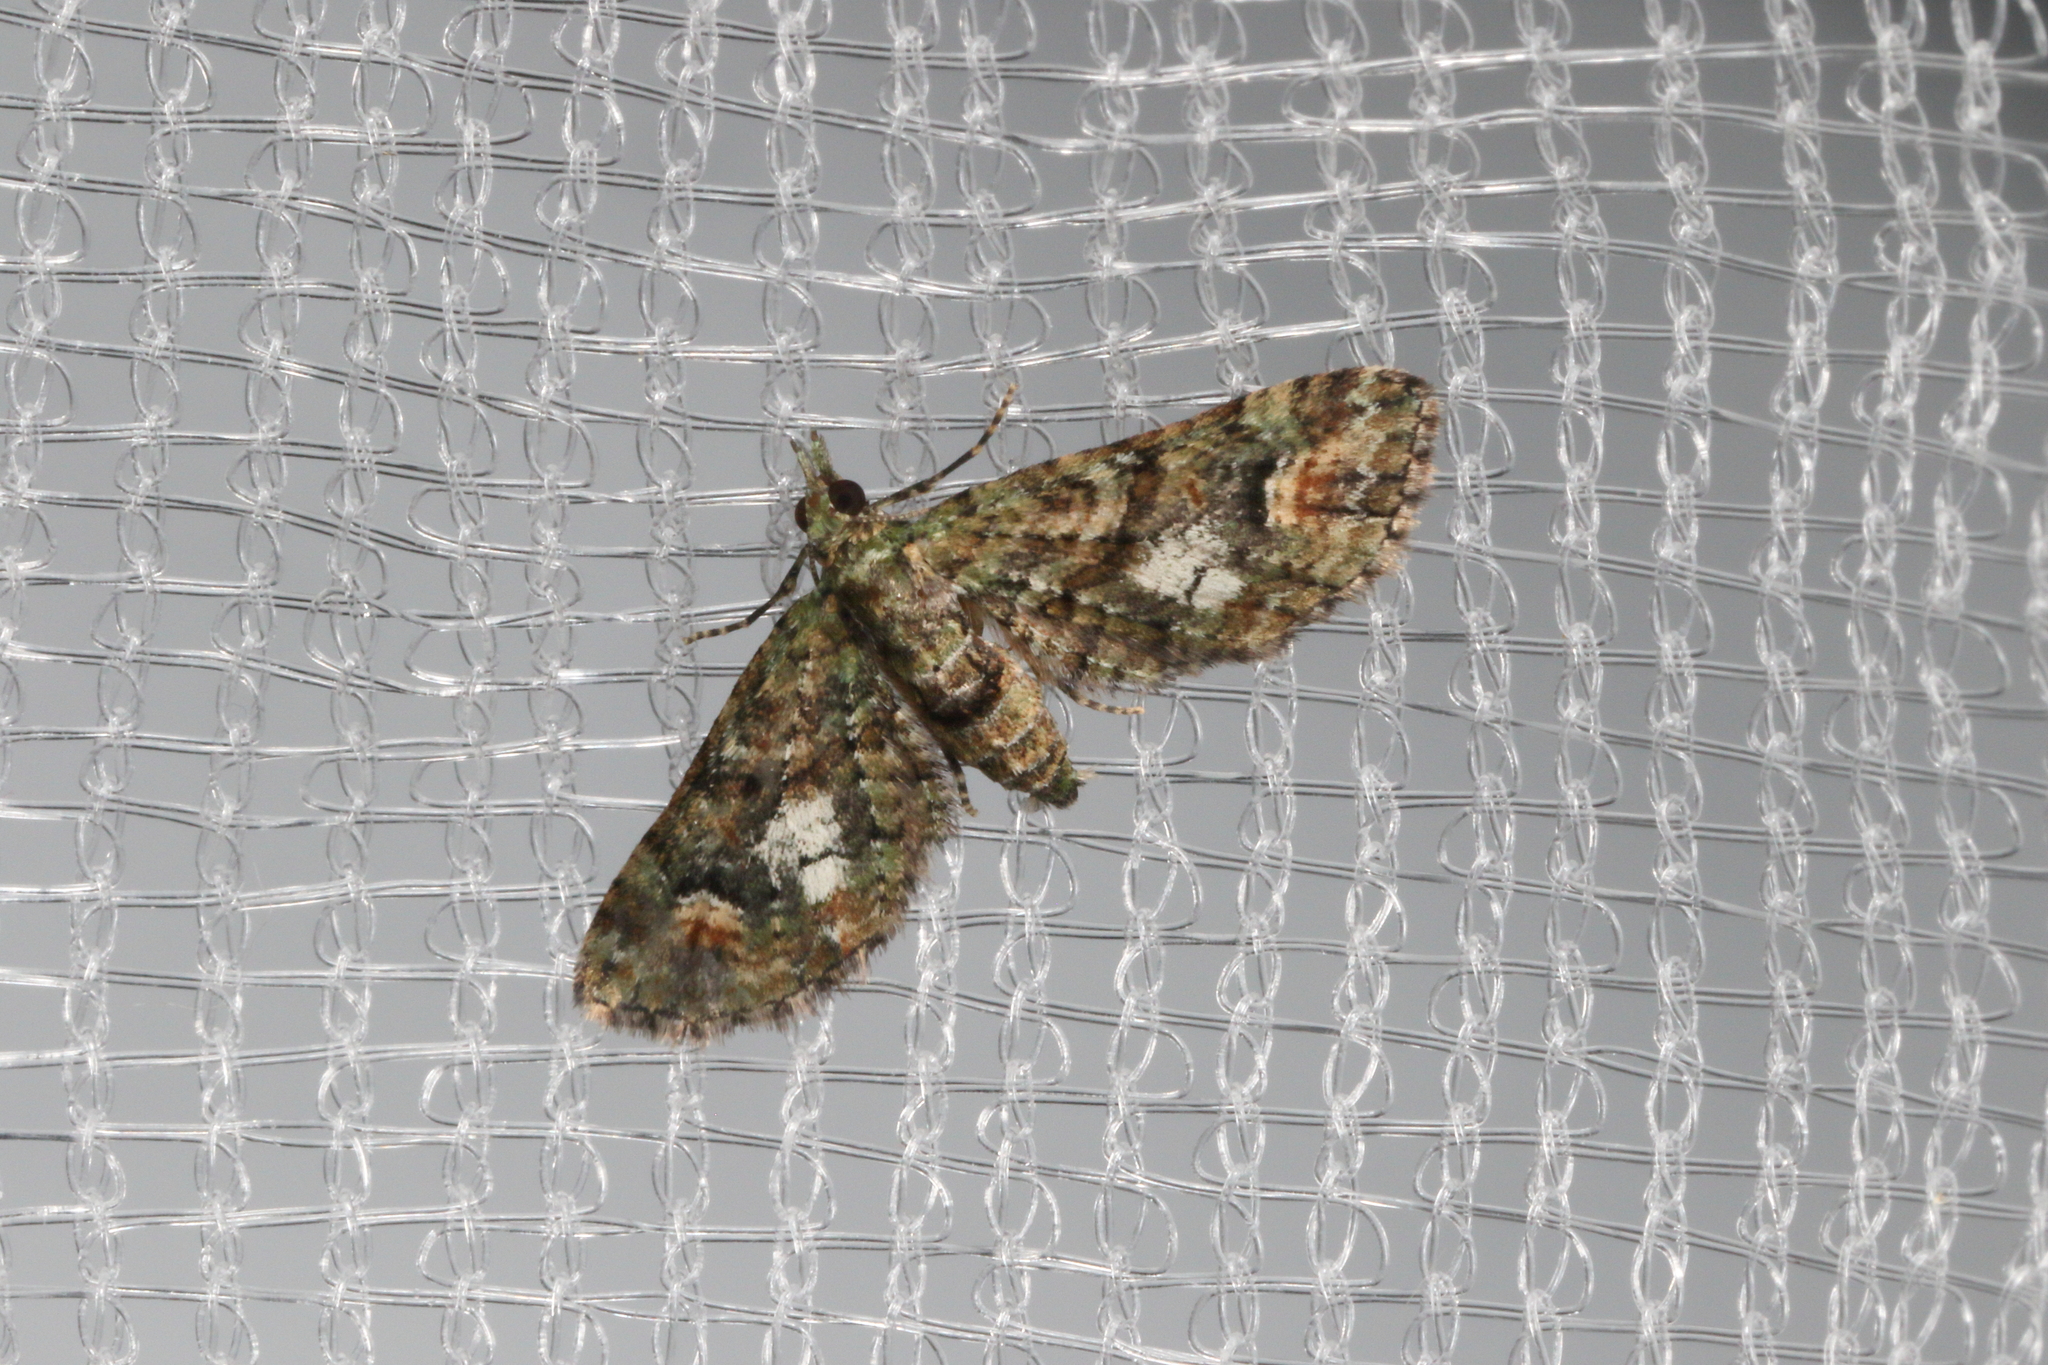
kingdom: Animalia
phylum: Arthropoda
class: Insecta
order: Lepidoptera
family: Geometridae
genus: Idaea
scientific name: Idaea mutanda
